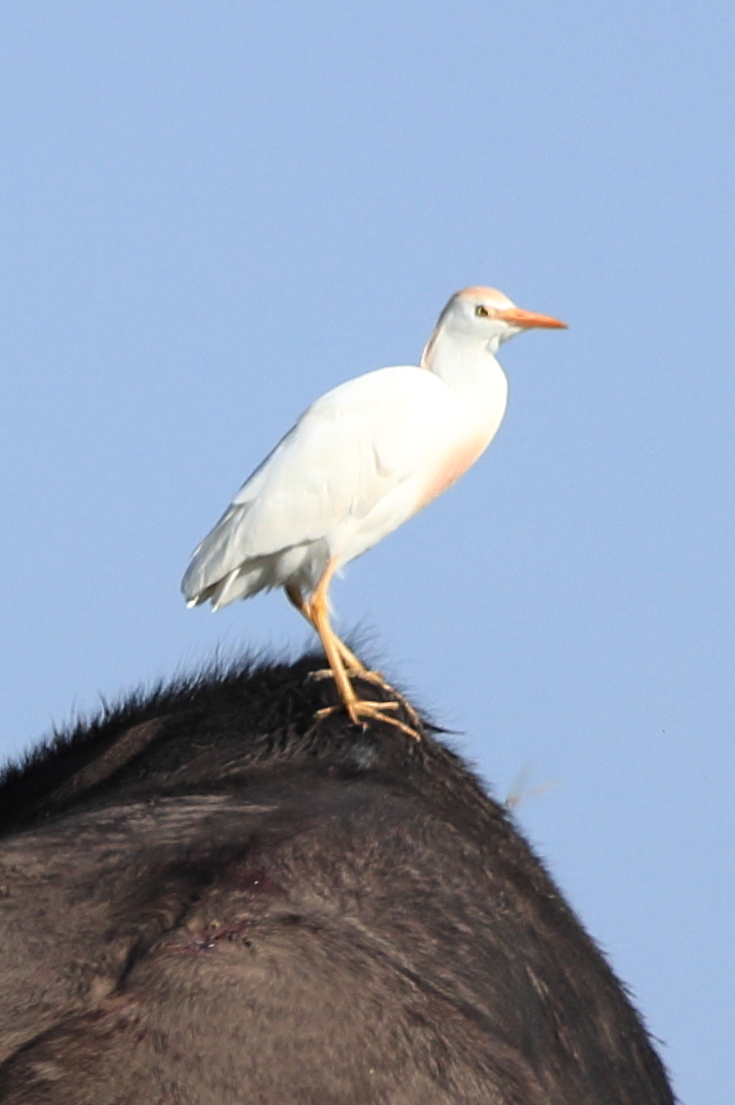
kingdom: Animalia
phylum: Chordata
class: Aves
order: Pelecaniformes
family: Ardeidae
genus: Bubulcus
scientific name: Bubulcus ibis
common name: Cattle egret
